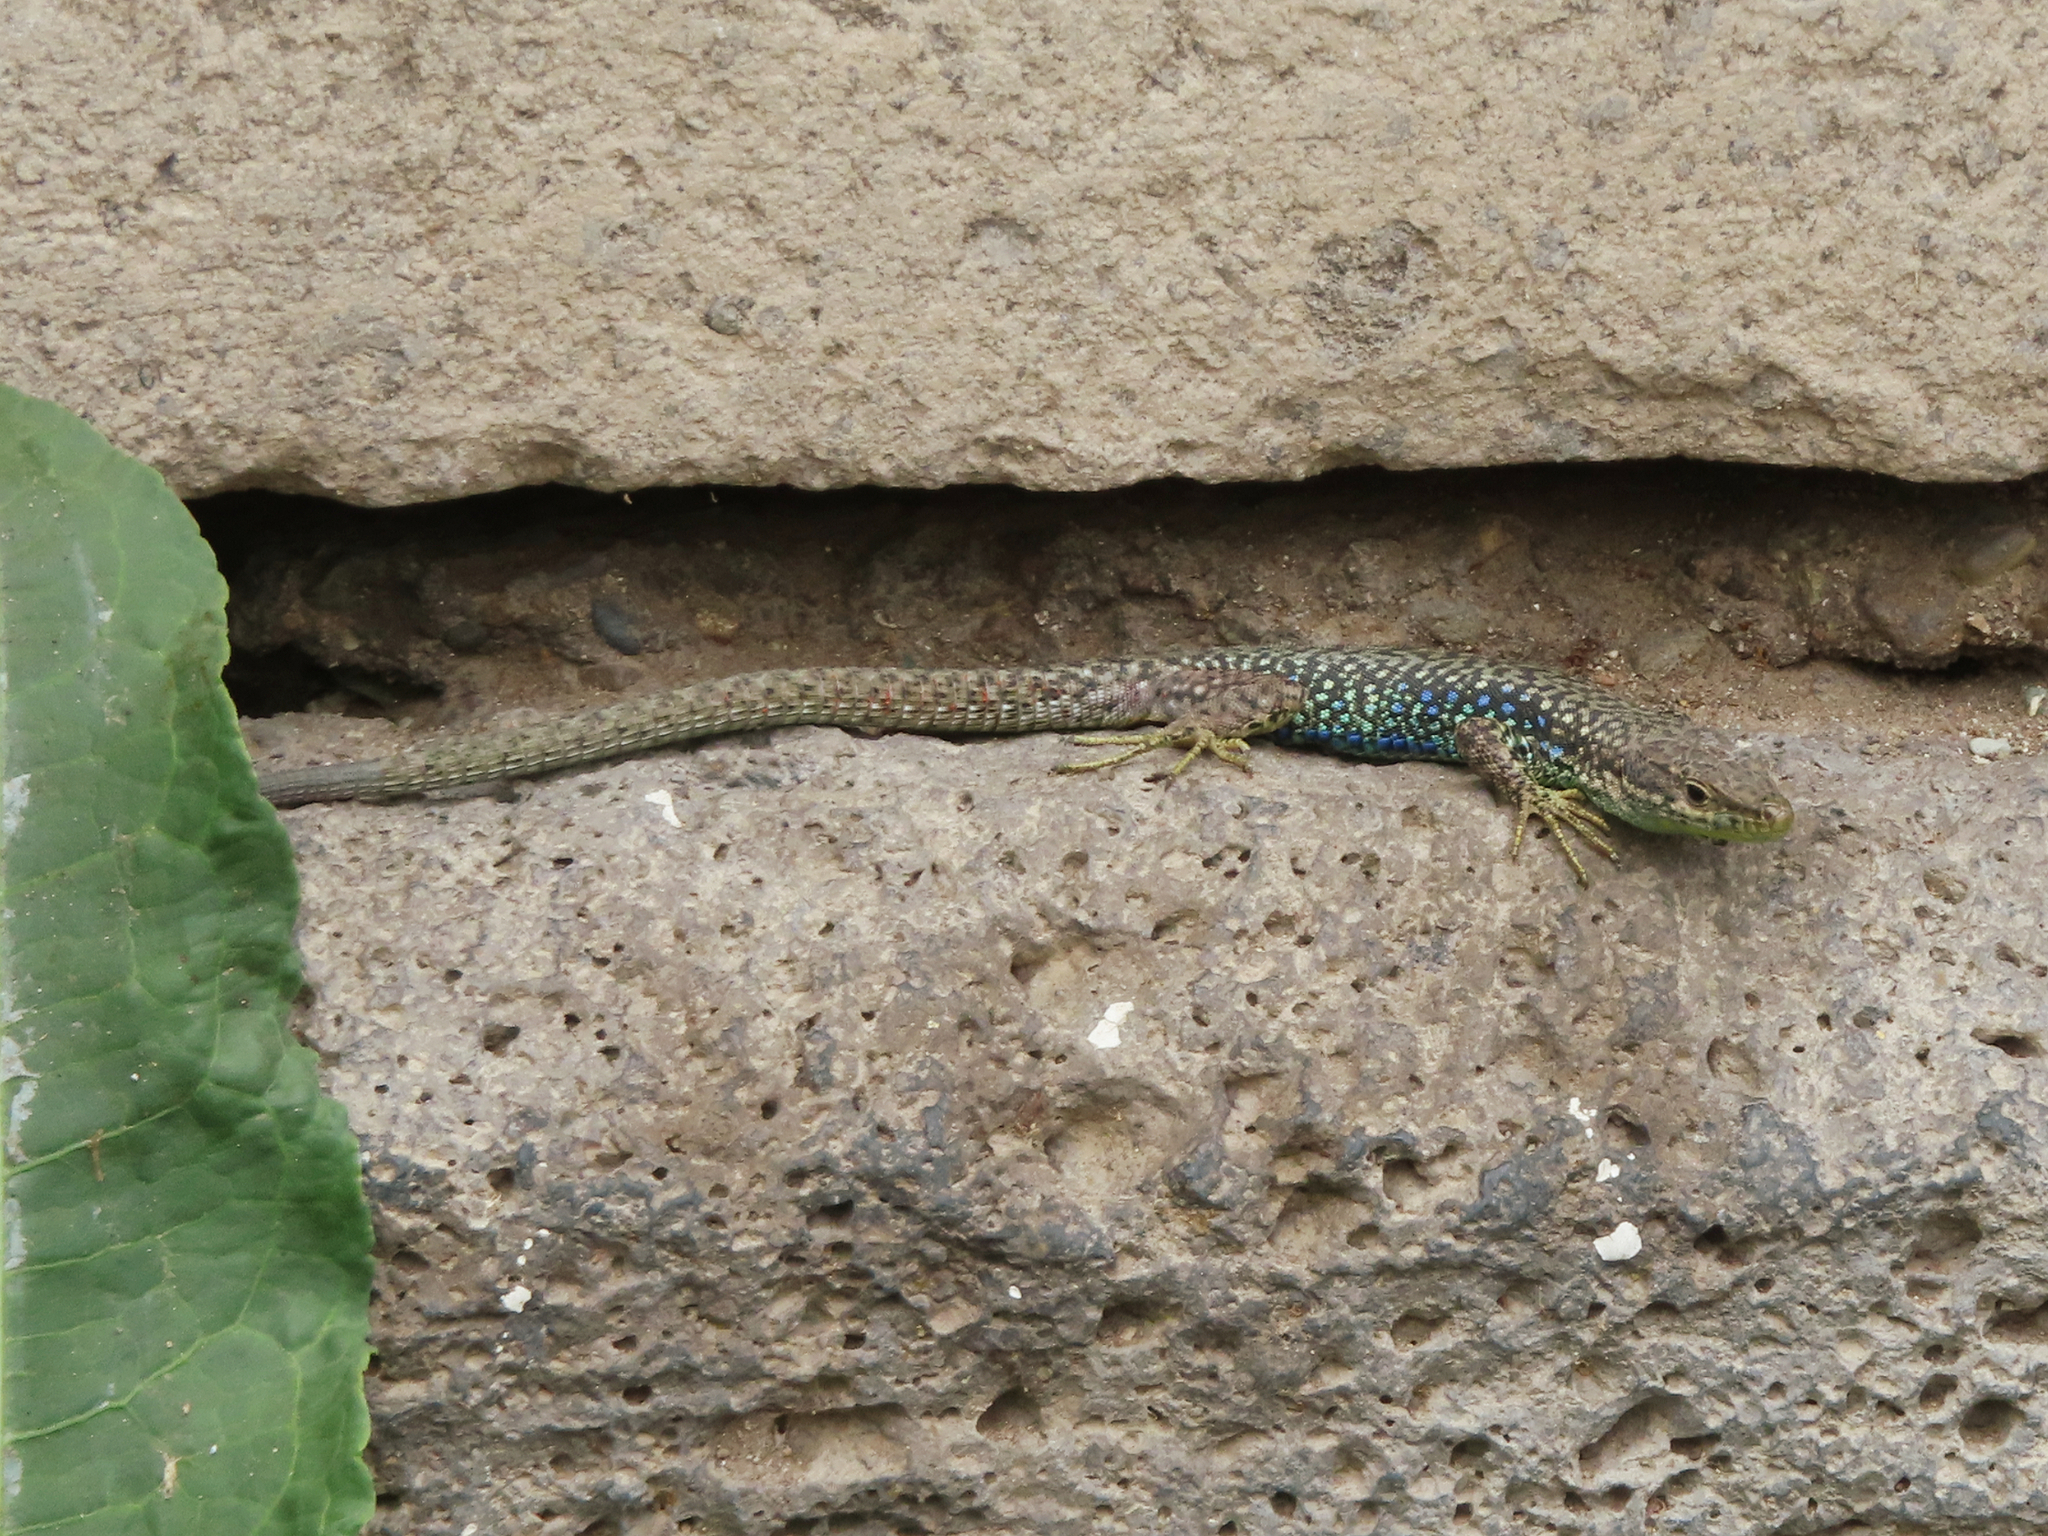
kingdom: Animalia
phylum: Chordata
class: Squamata
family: Lacertidae
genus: Darevskia
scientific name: Darevskia
